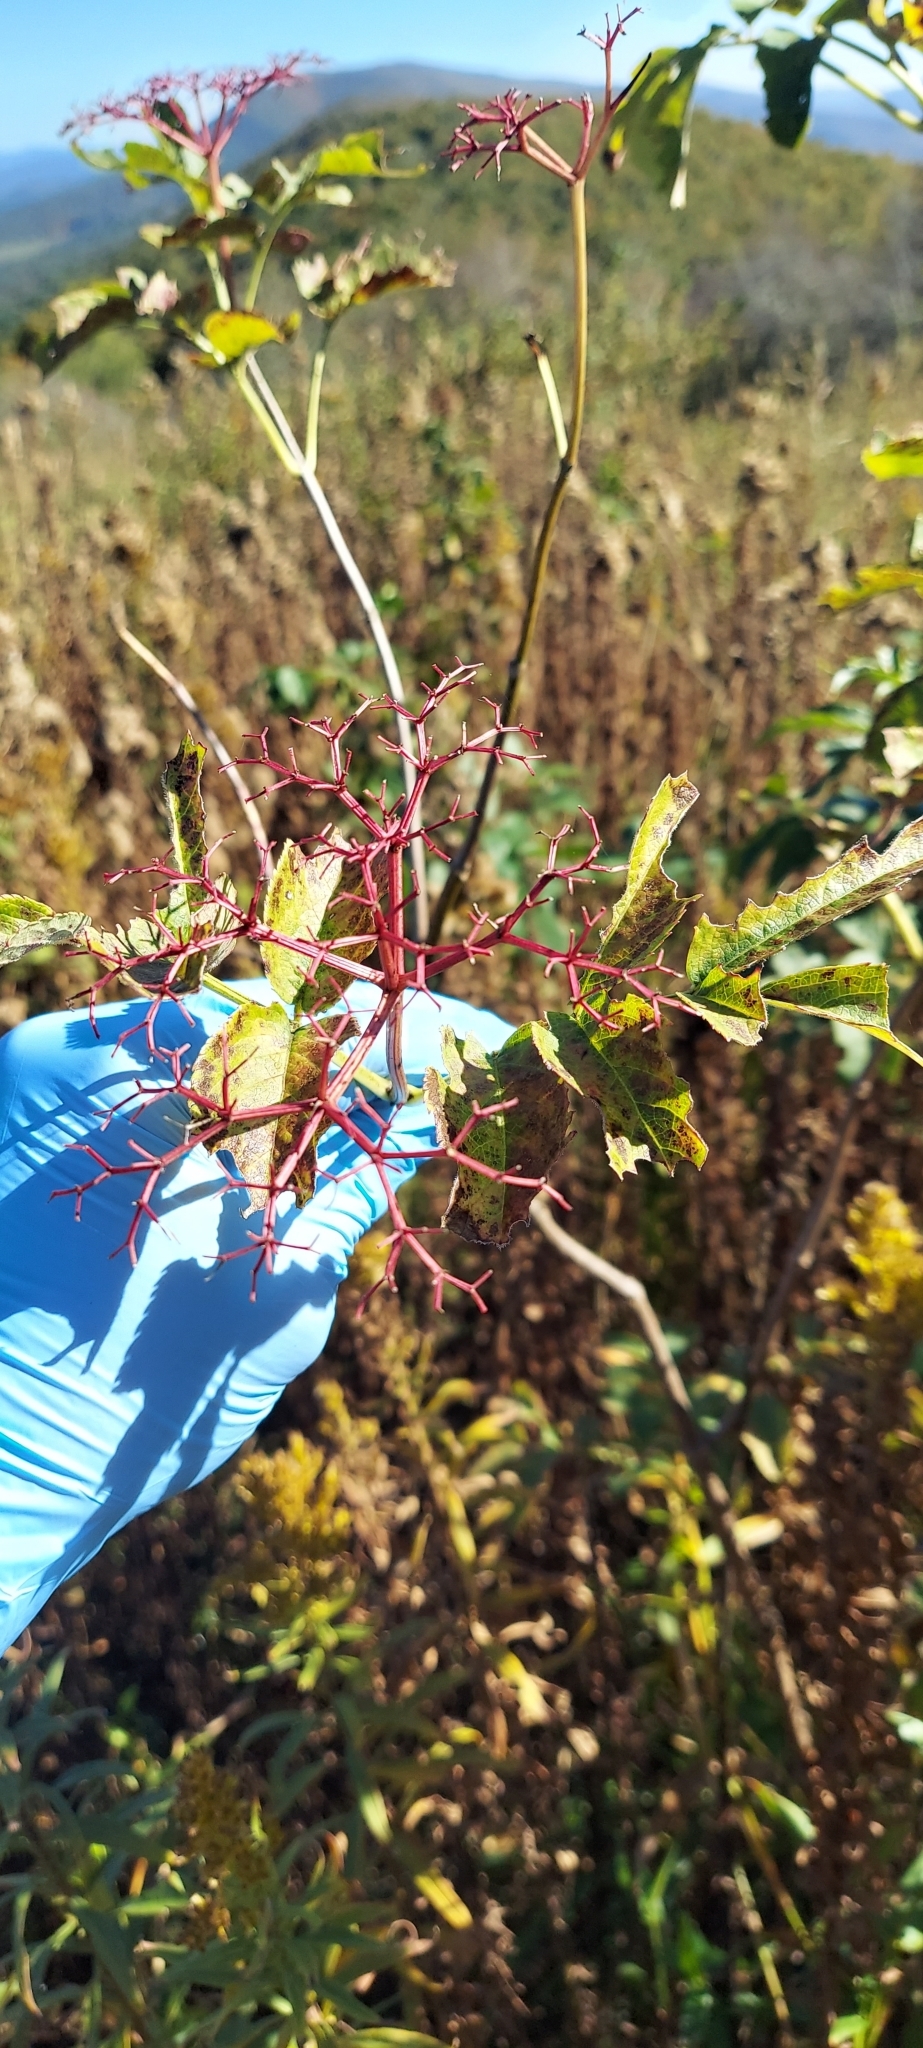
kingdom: Plantae
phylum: Tracheophyta
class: Magnoliopsida
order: Dipsacales
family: Viburnaceae
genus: Sambucus
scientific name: Sambucus canadensis
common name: American elder
